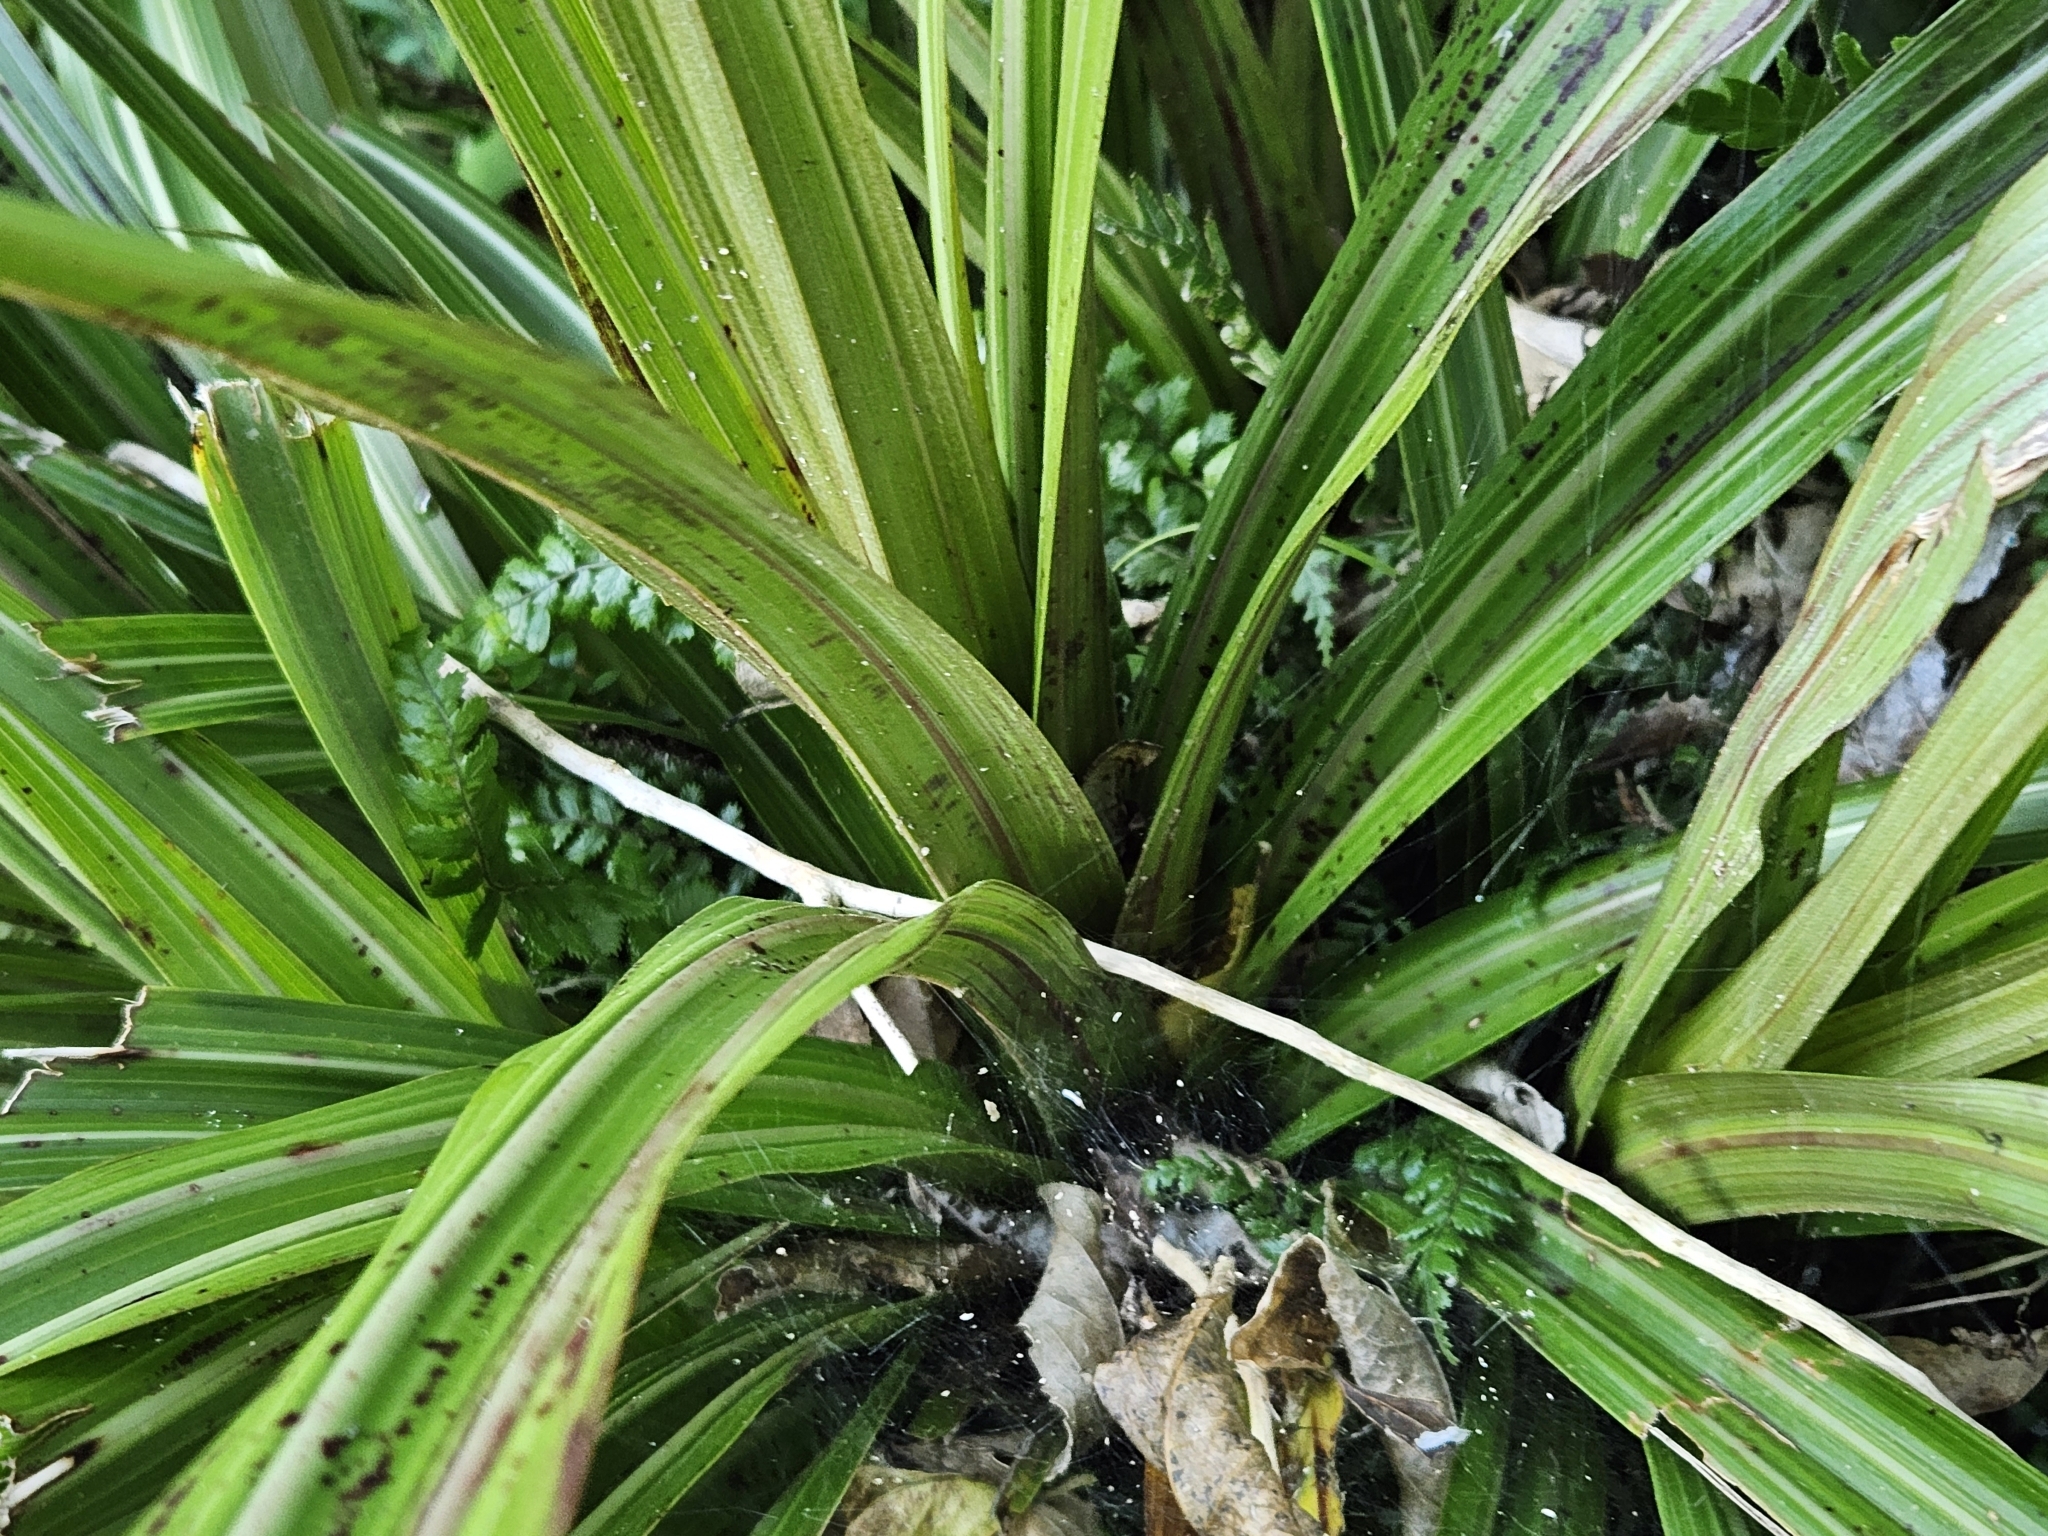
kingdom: Plantae
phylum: Tracheophyta
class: Liliopsida
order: Asparagales
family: Asteliaceae
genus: Astelia
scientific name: Astelia fragrans
